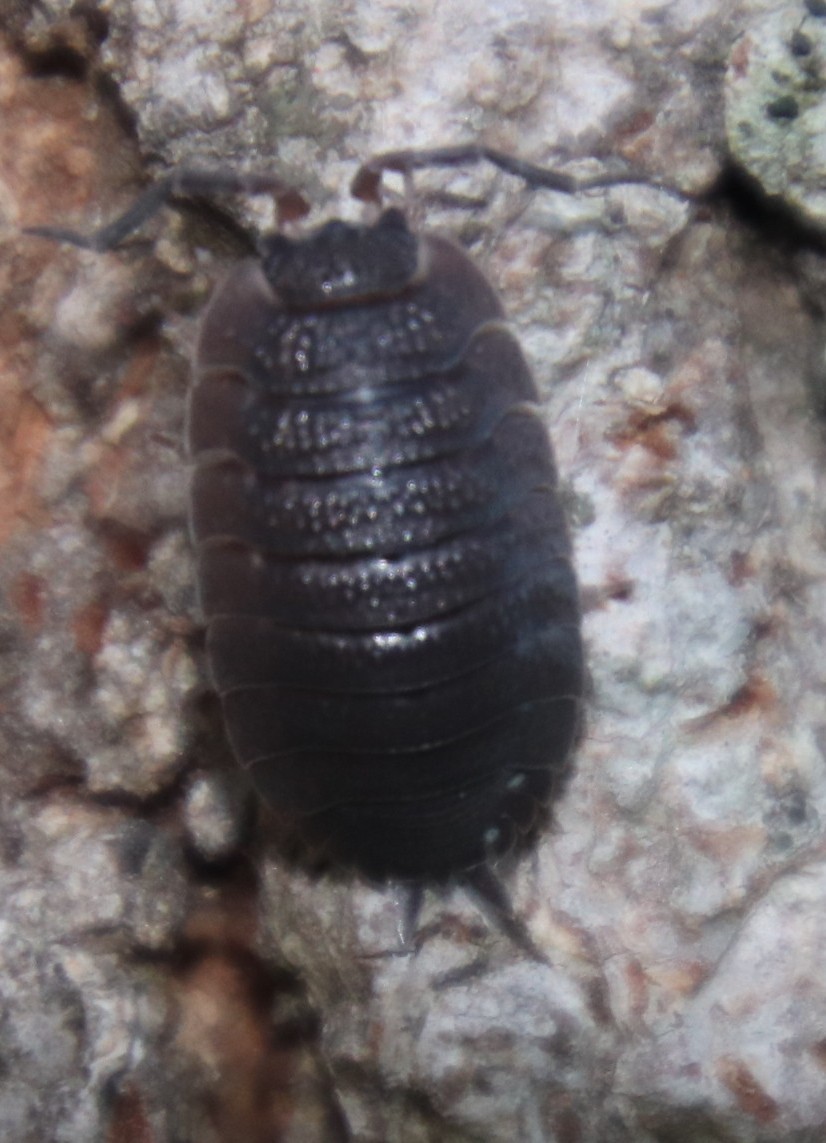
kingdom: Animalia
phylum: Arthropoda
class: Malacostraca
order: Isopoda
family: Porcellionidae
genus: Porcellio
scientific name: Porcellio scaber
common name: Common rough woodlouse
